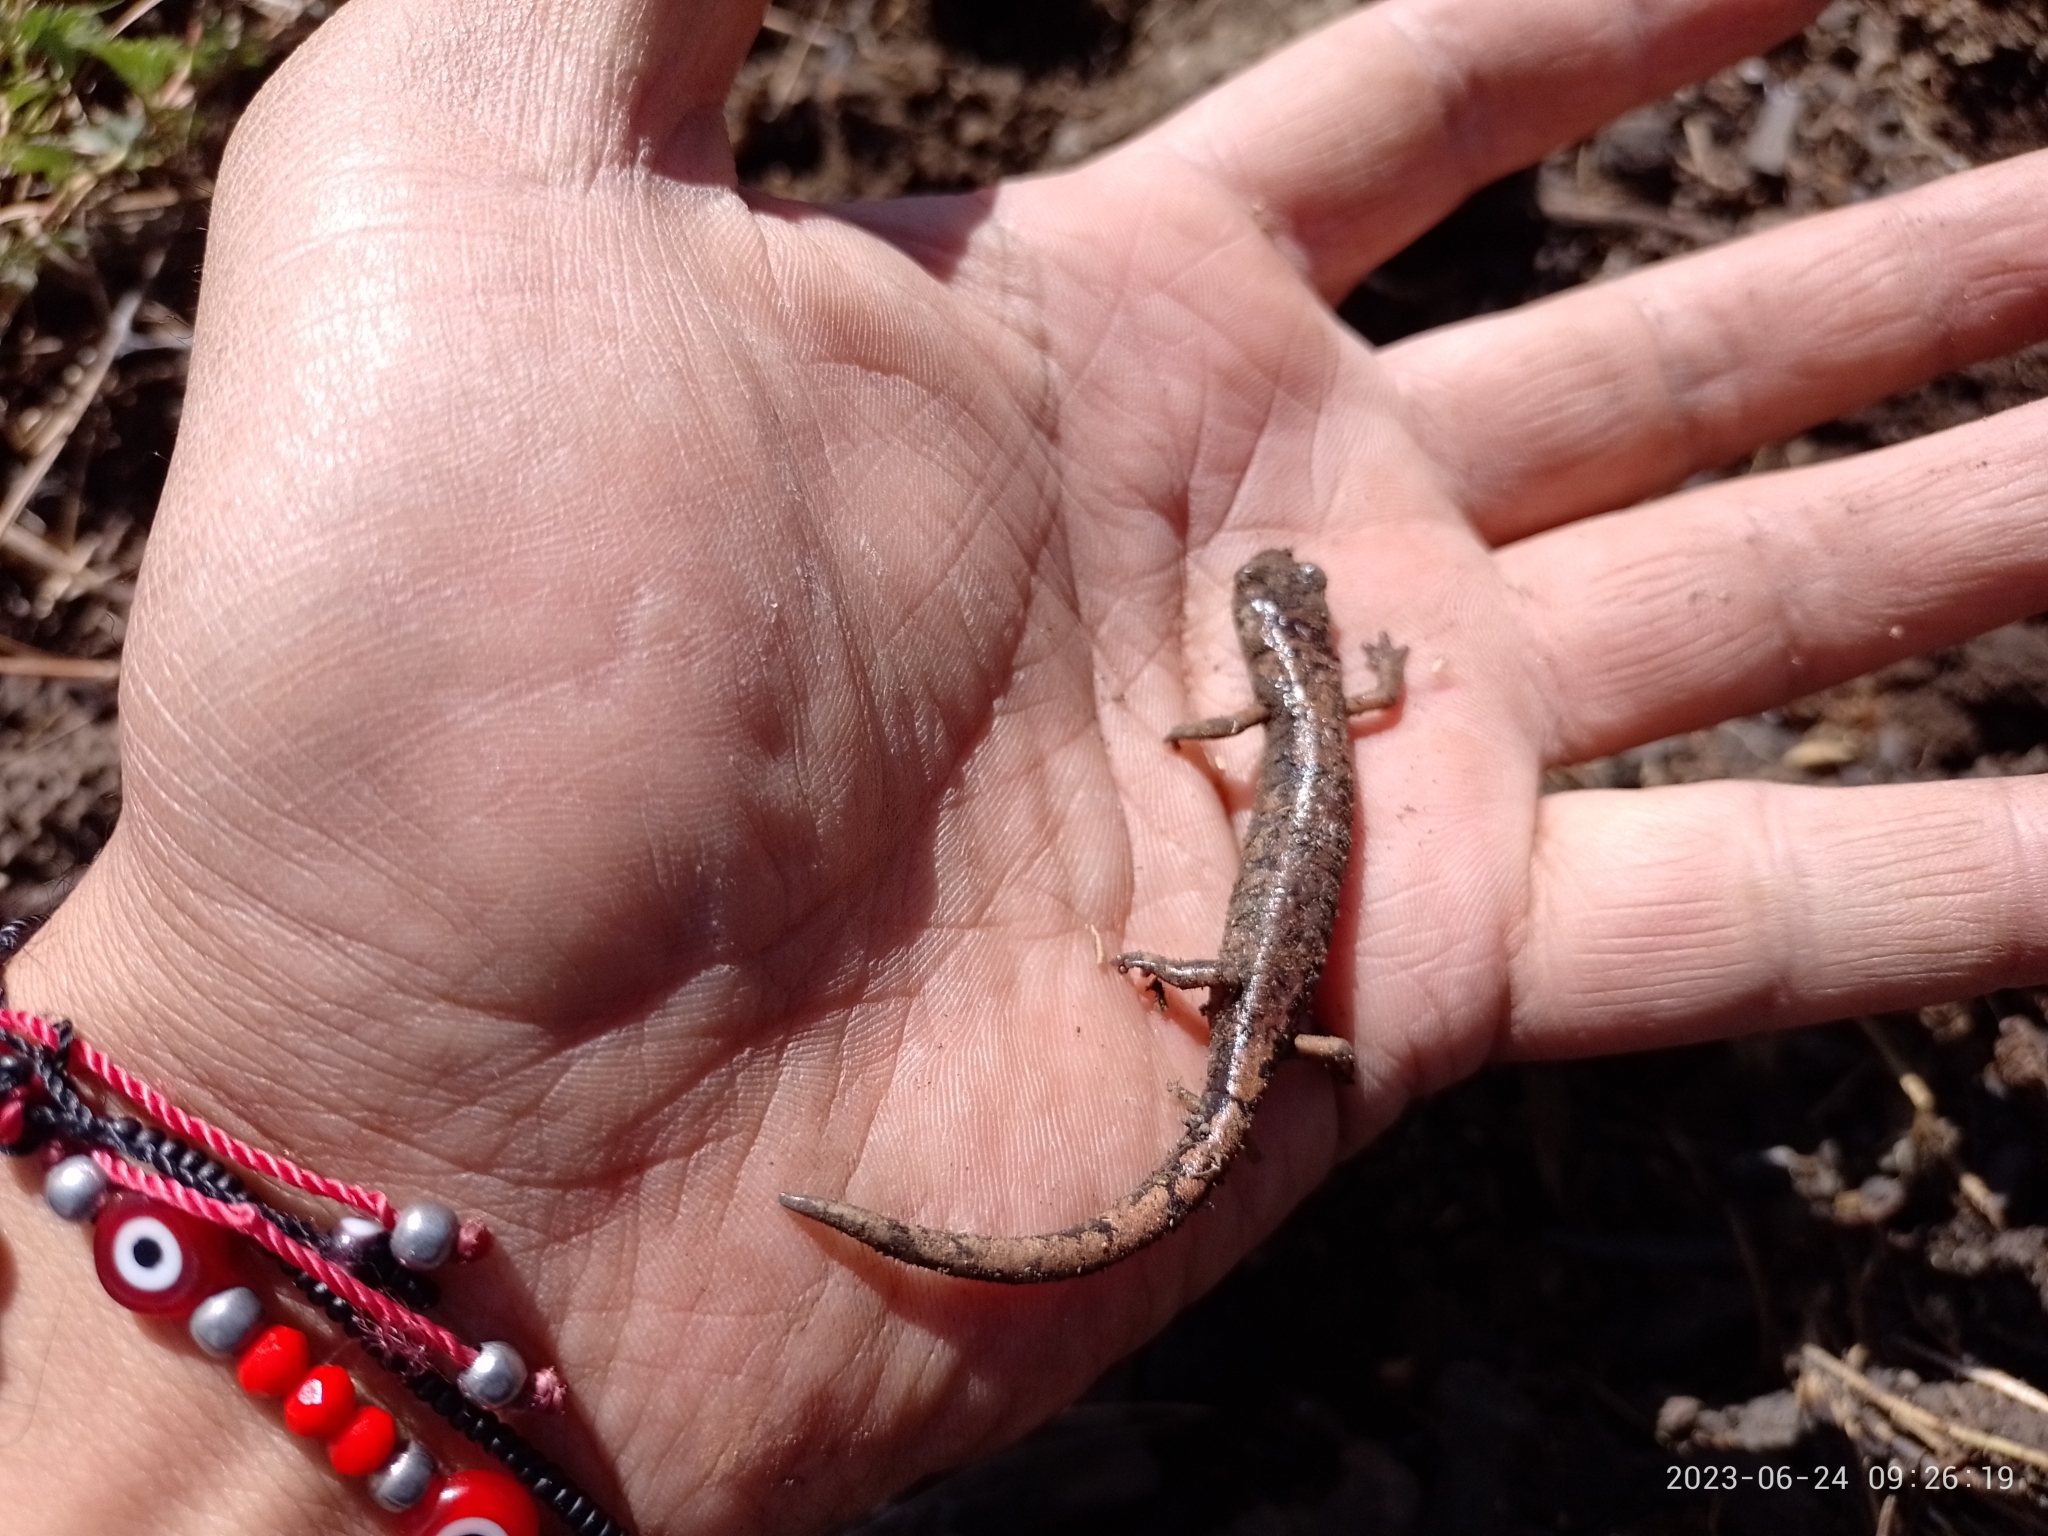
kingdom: Animalia
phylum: Chordata
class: Amphibia
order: Caudata
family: Plethodontidae
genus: Pseudoeurycea
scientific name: Pseudoeurycea leprosa
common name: Leprous false brook salamander
